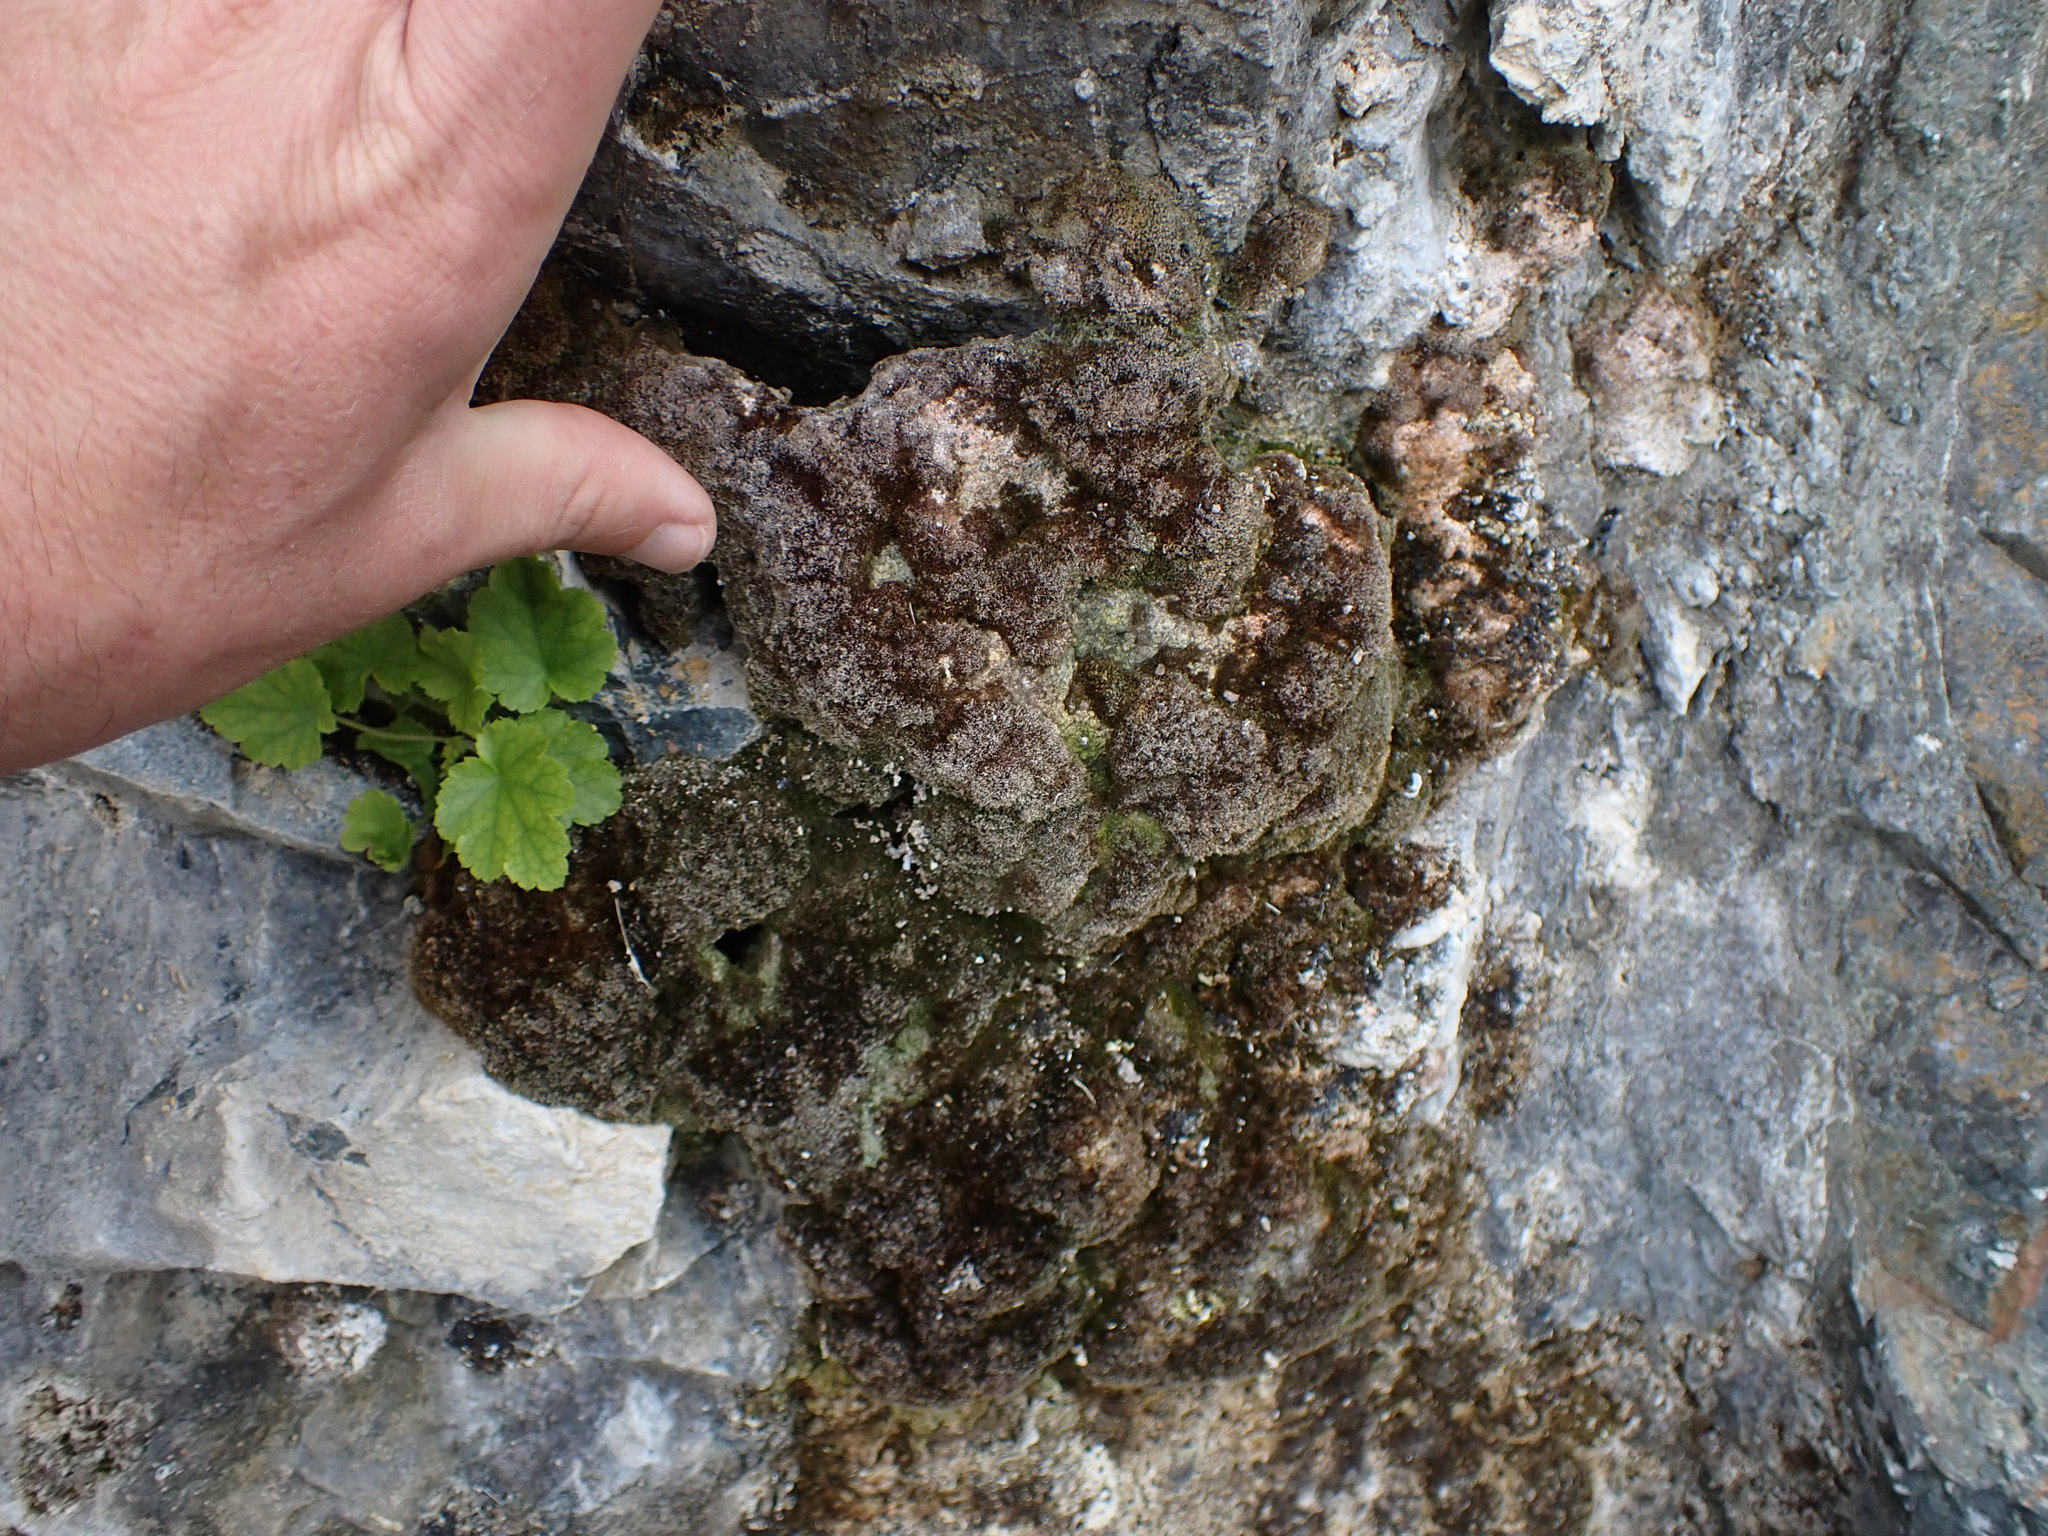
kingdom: Plantae
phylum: Bryophyta
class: Bryopsida
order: Pottiales
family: Pottiaceae
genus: Eucladium
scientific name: Eucladium verticillatum
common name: Whorled tufa-moss
